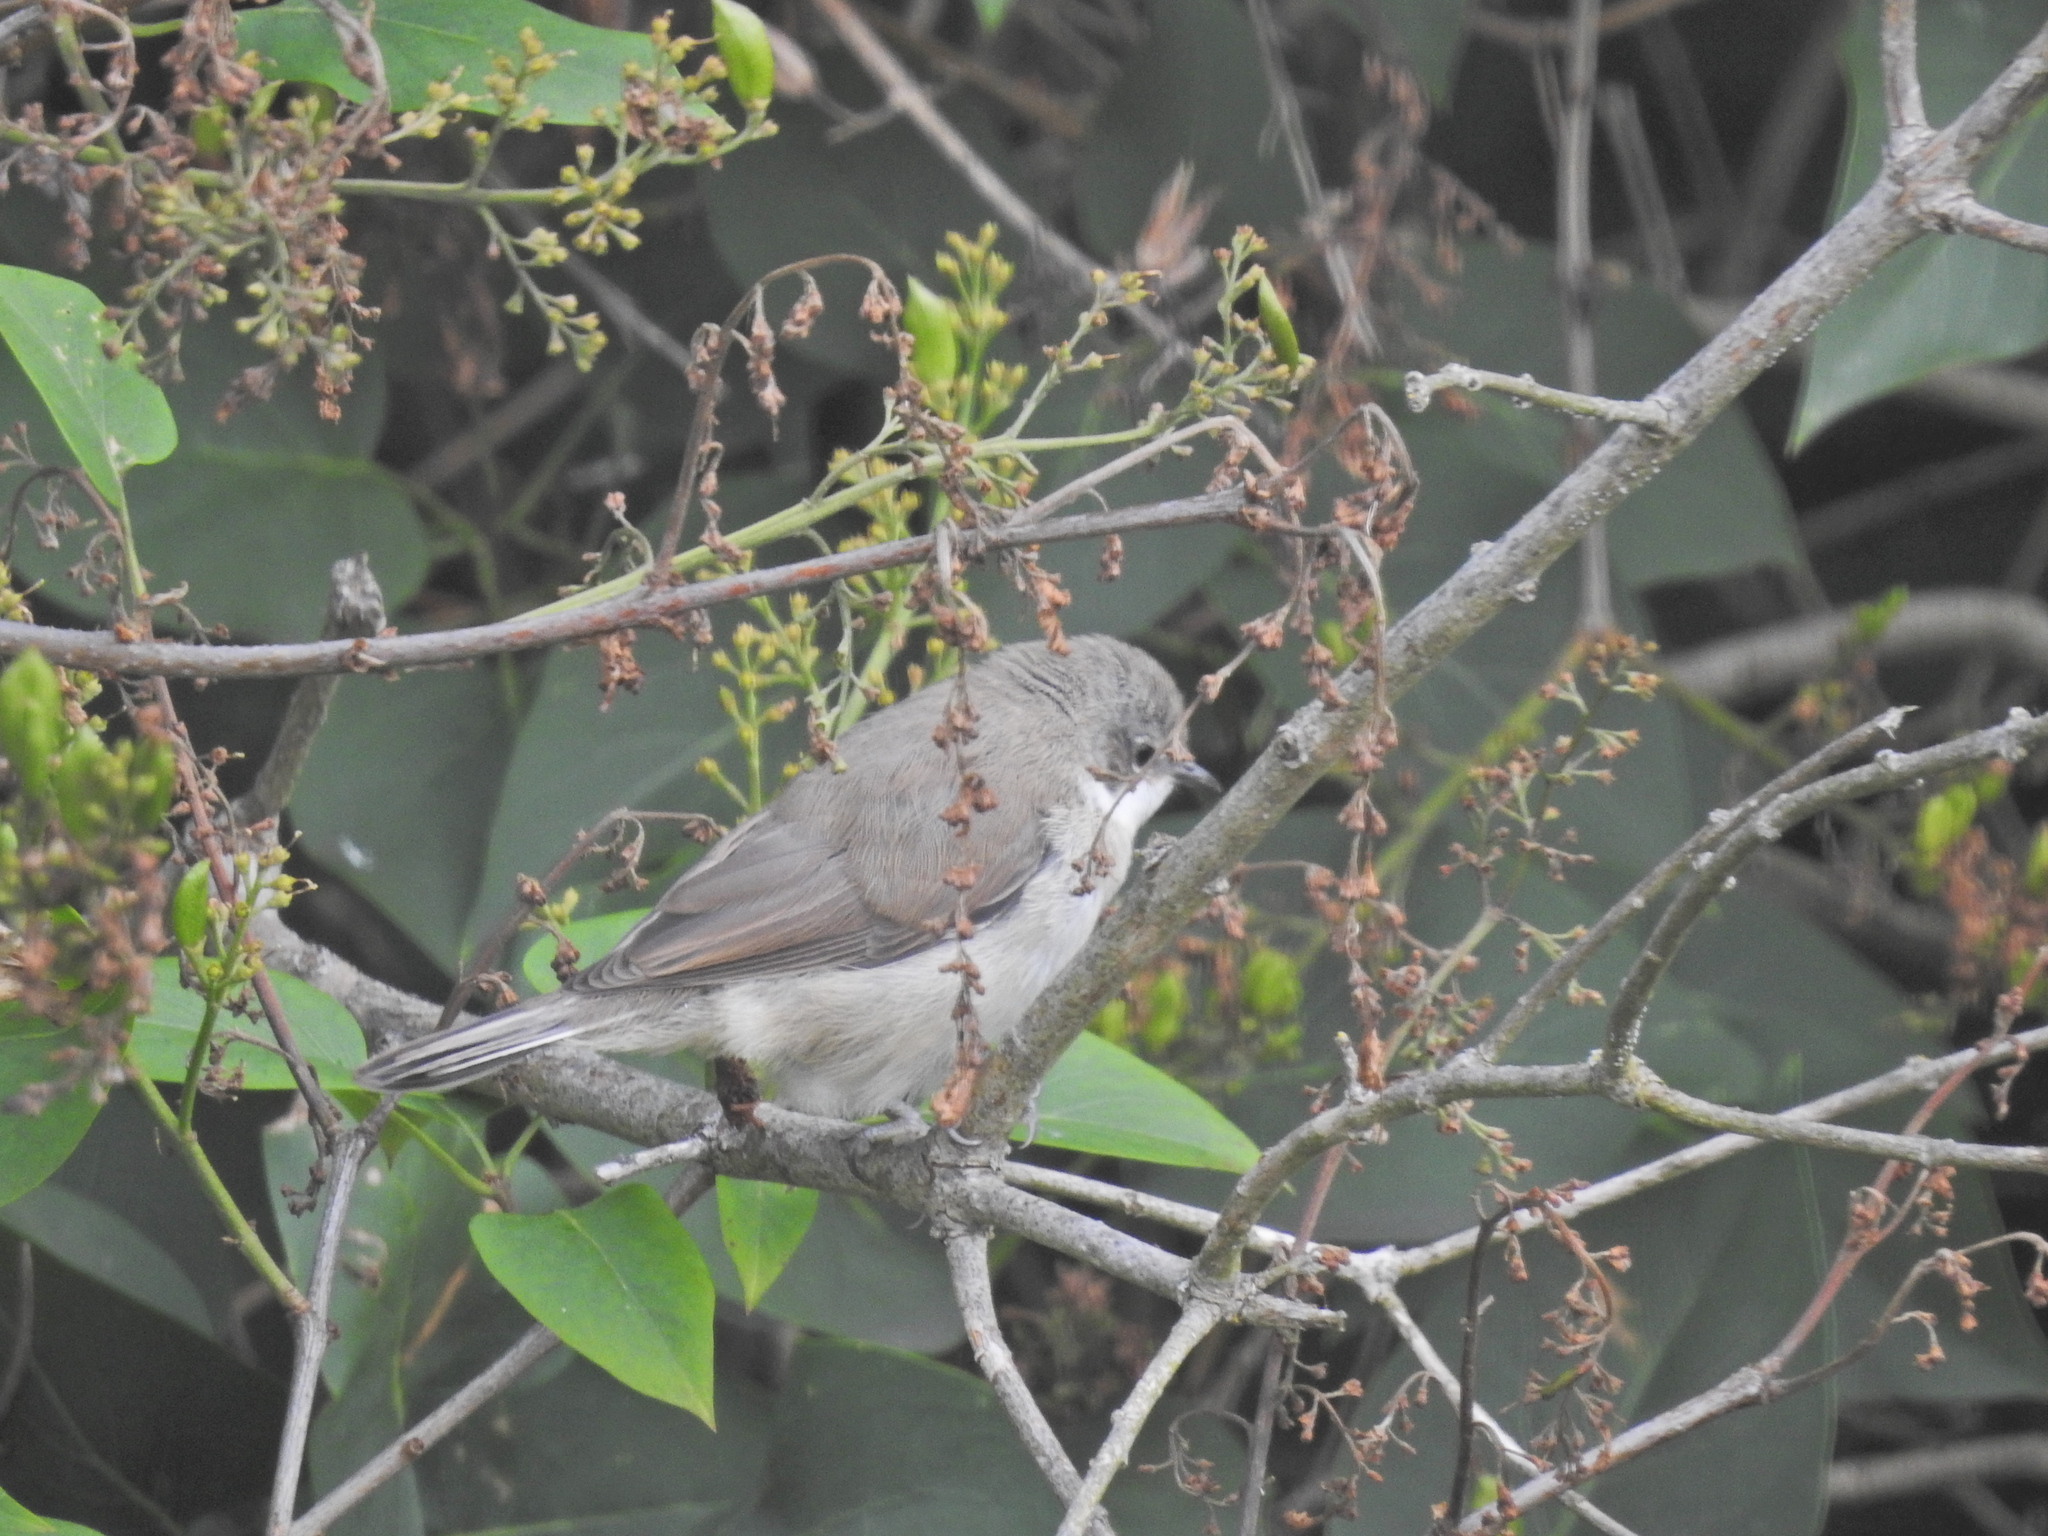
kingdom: Animalia
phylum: Chordata
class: Aves
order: Passeriformes
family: Sylviidae
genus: Sylvia
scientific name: Sylvia curruca
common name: Lesser whitethroat
